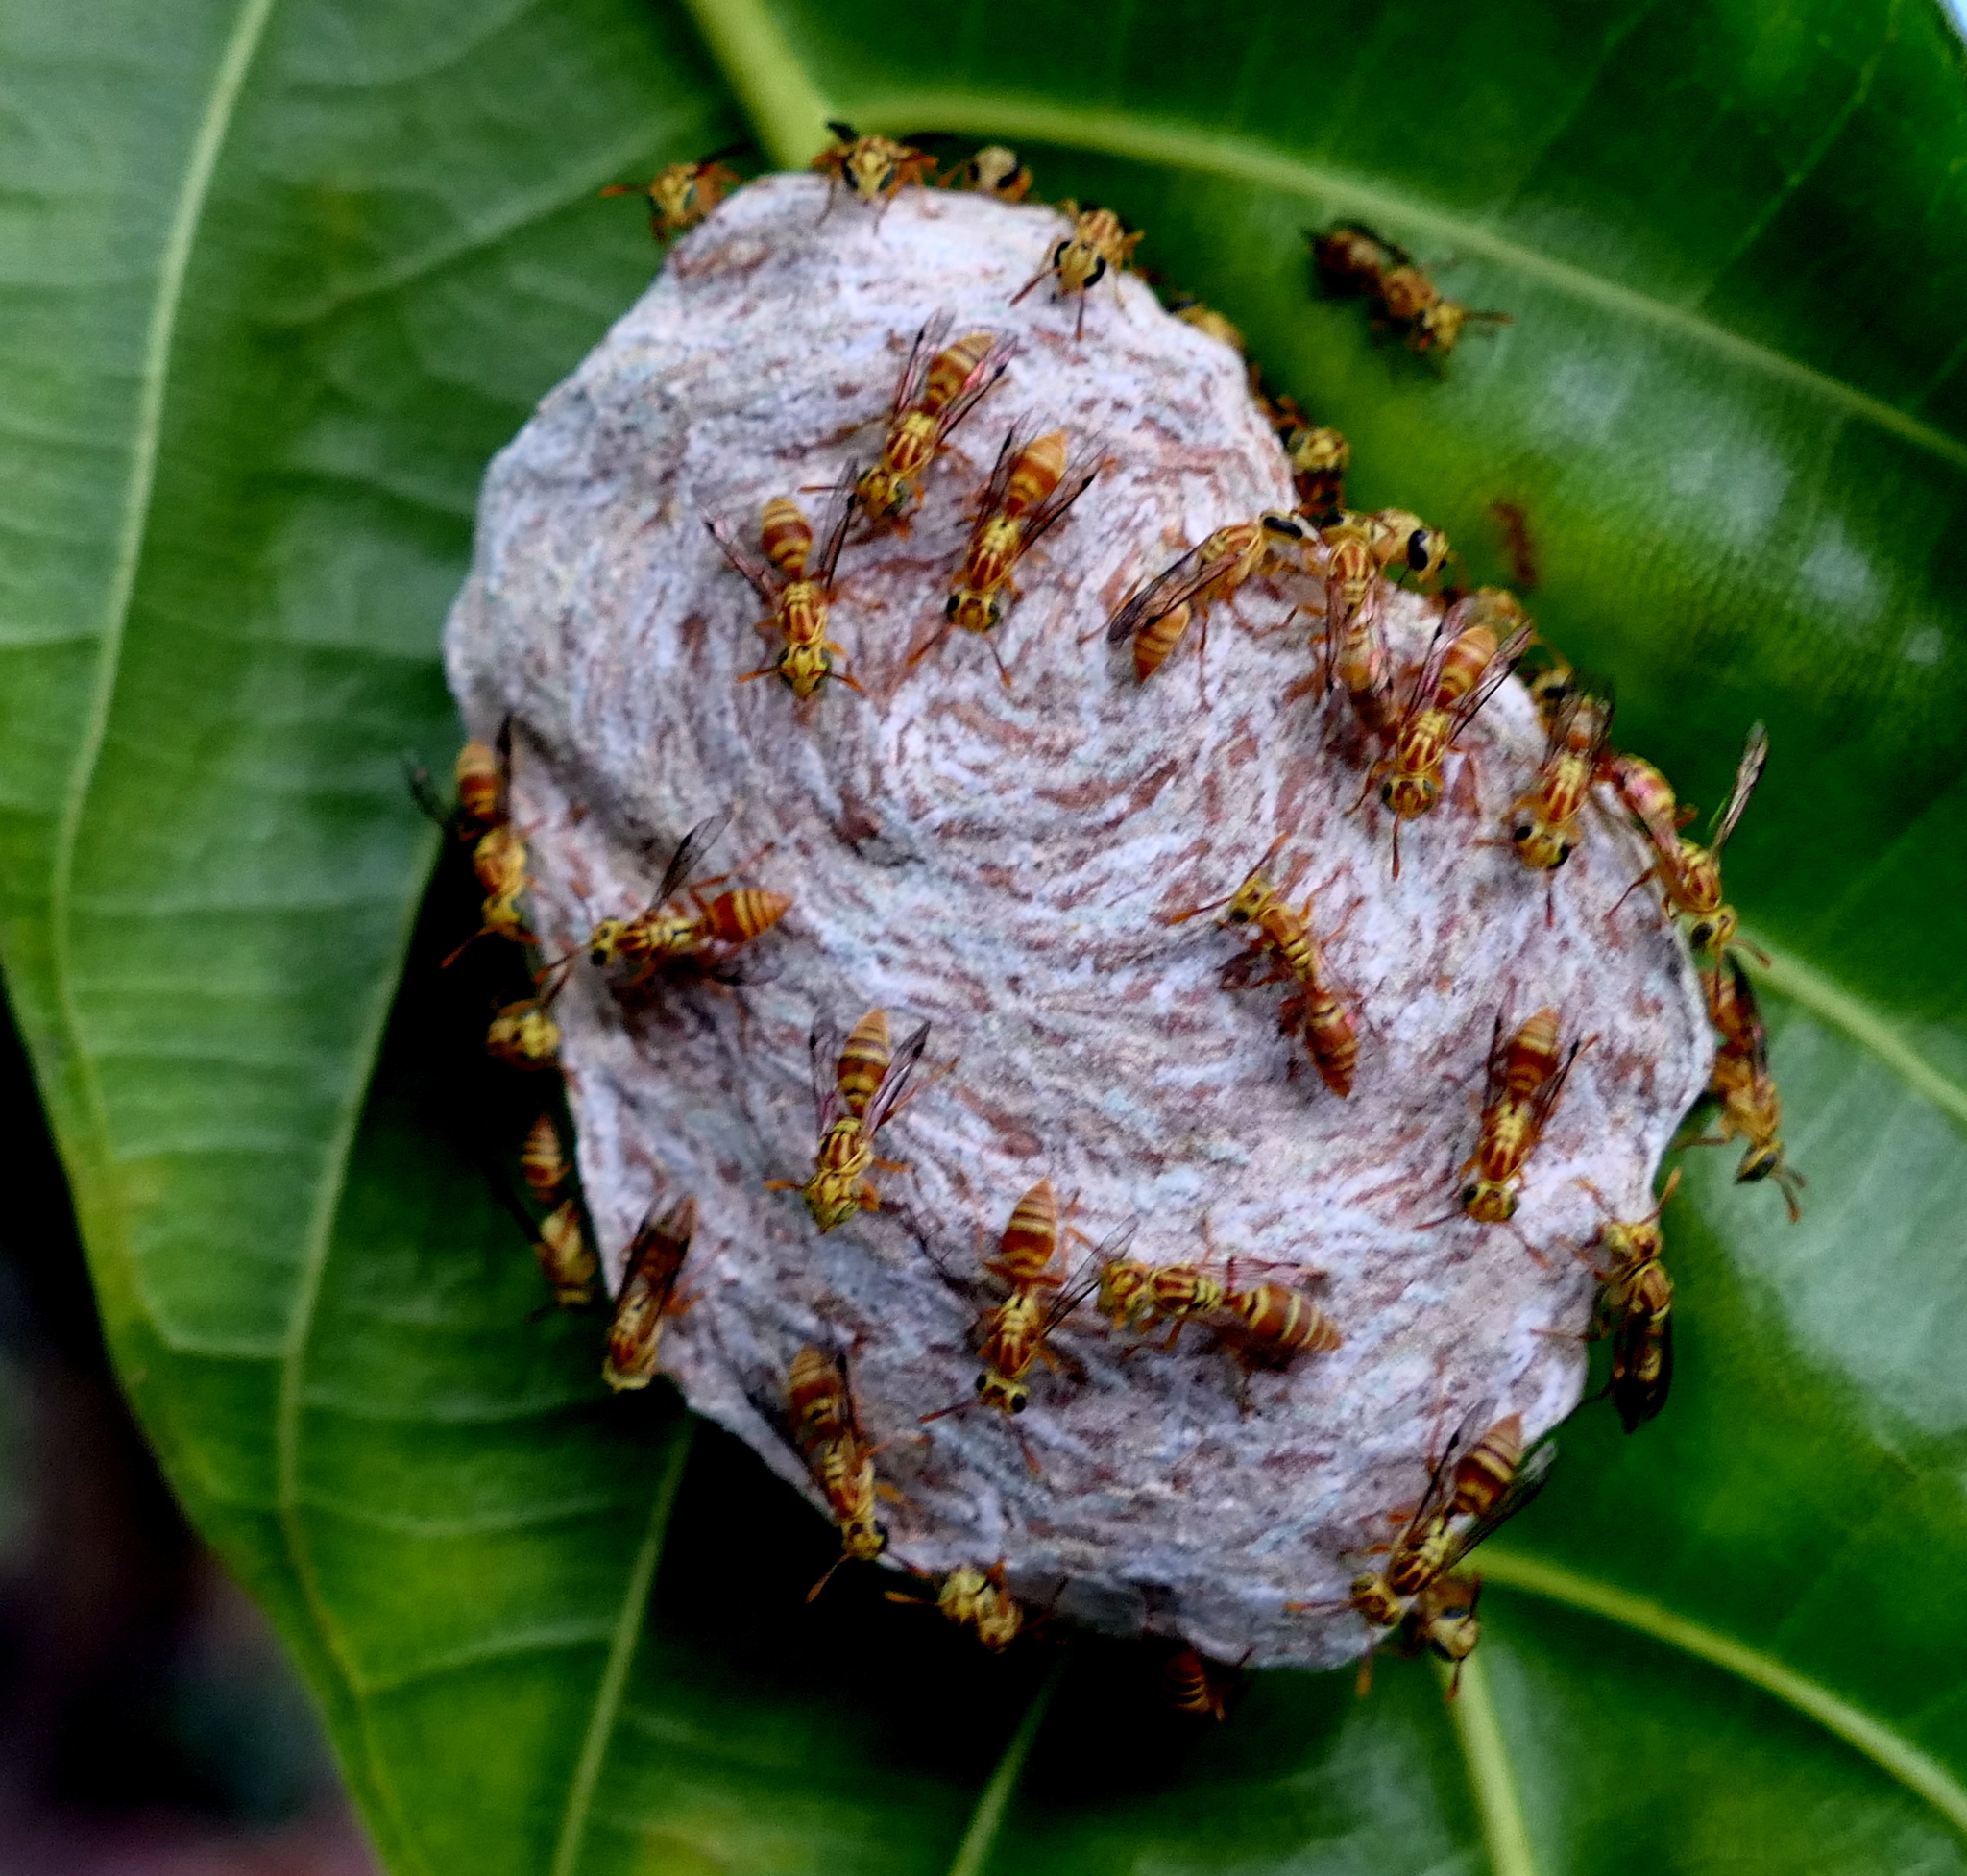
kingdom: Animalia
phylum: Arthropoda
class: Insecta
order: Hymenoptera
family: Vespidae
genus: Protopolybia
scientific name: Protopolybia potiguara
